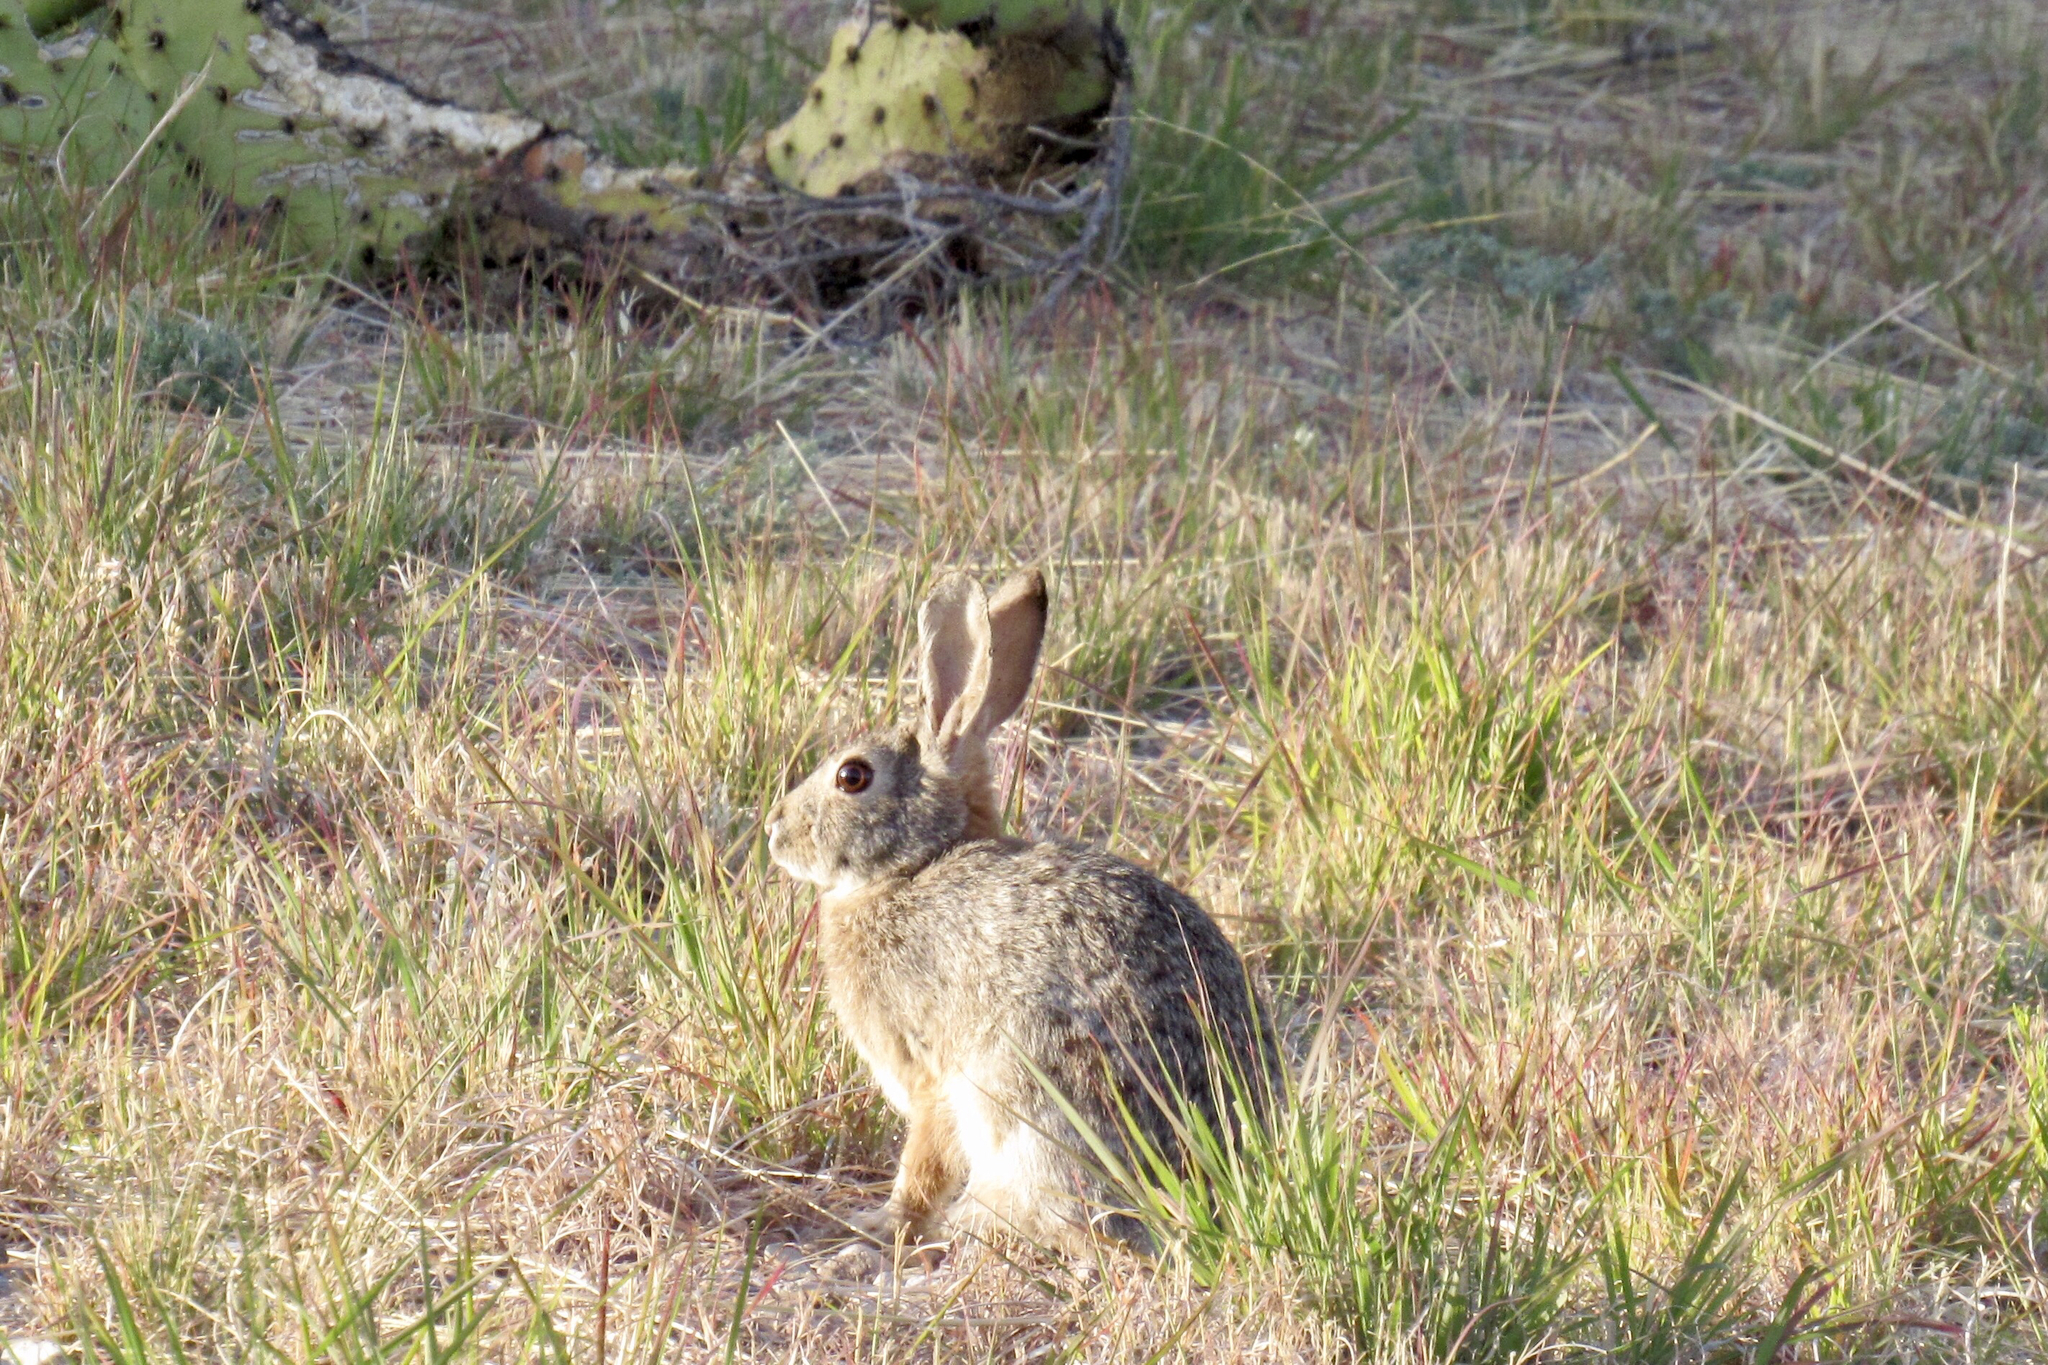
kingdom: Animalia
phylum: Chordata
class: Mammalia
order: Lagomorpha
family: Leporidae
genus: Sylvilagus
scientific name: Sylvilagus audubonii
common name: Desert cottontail
